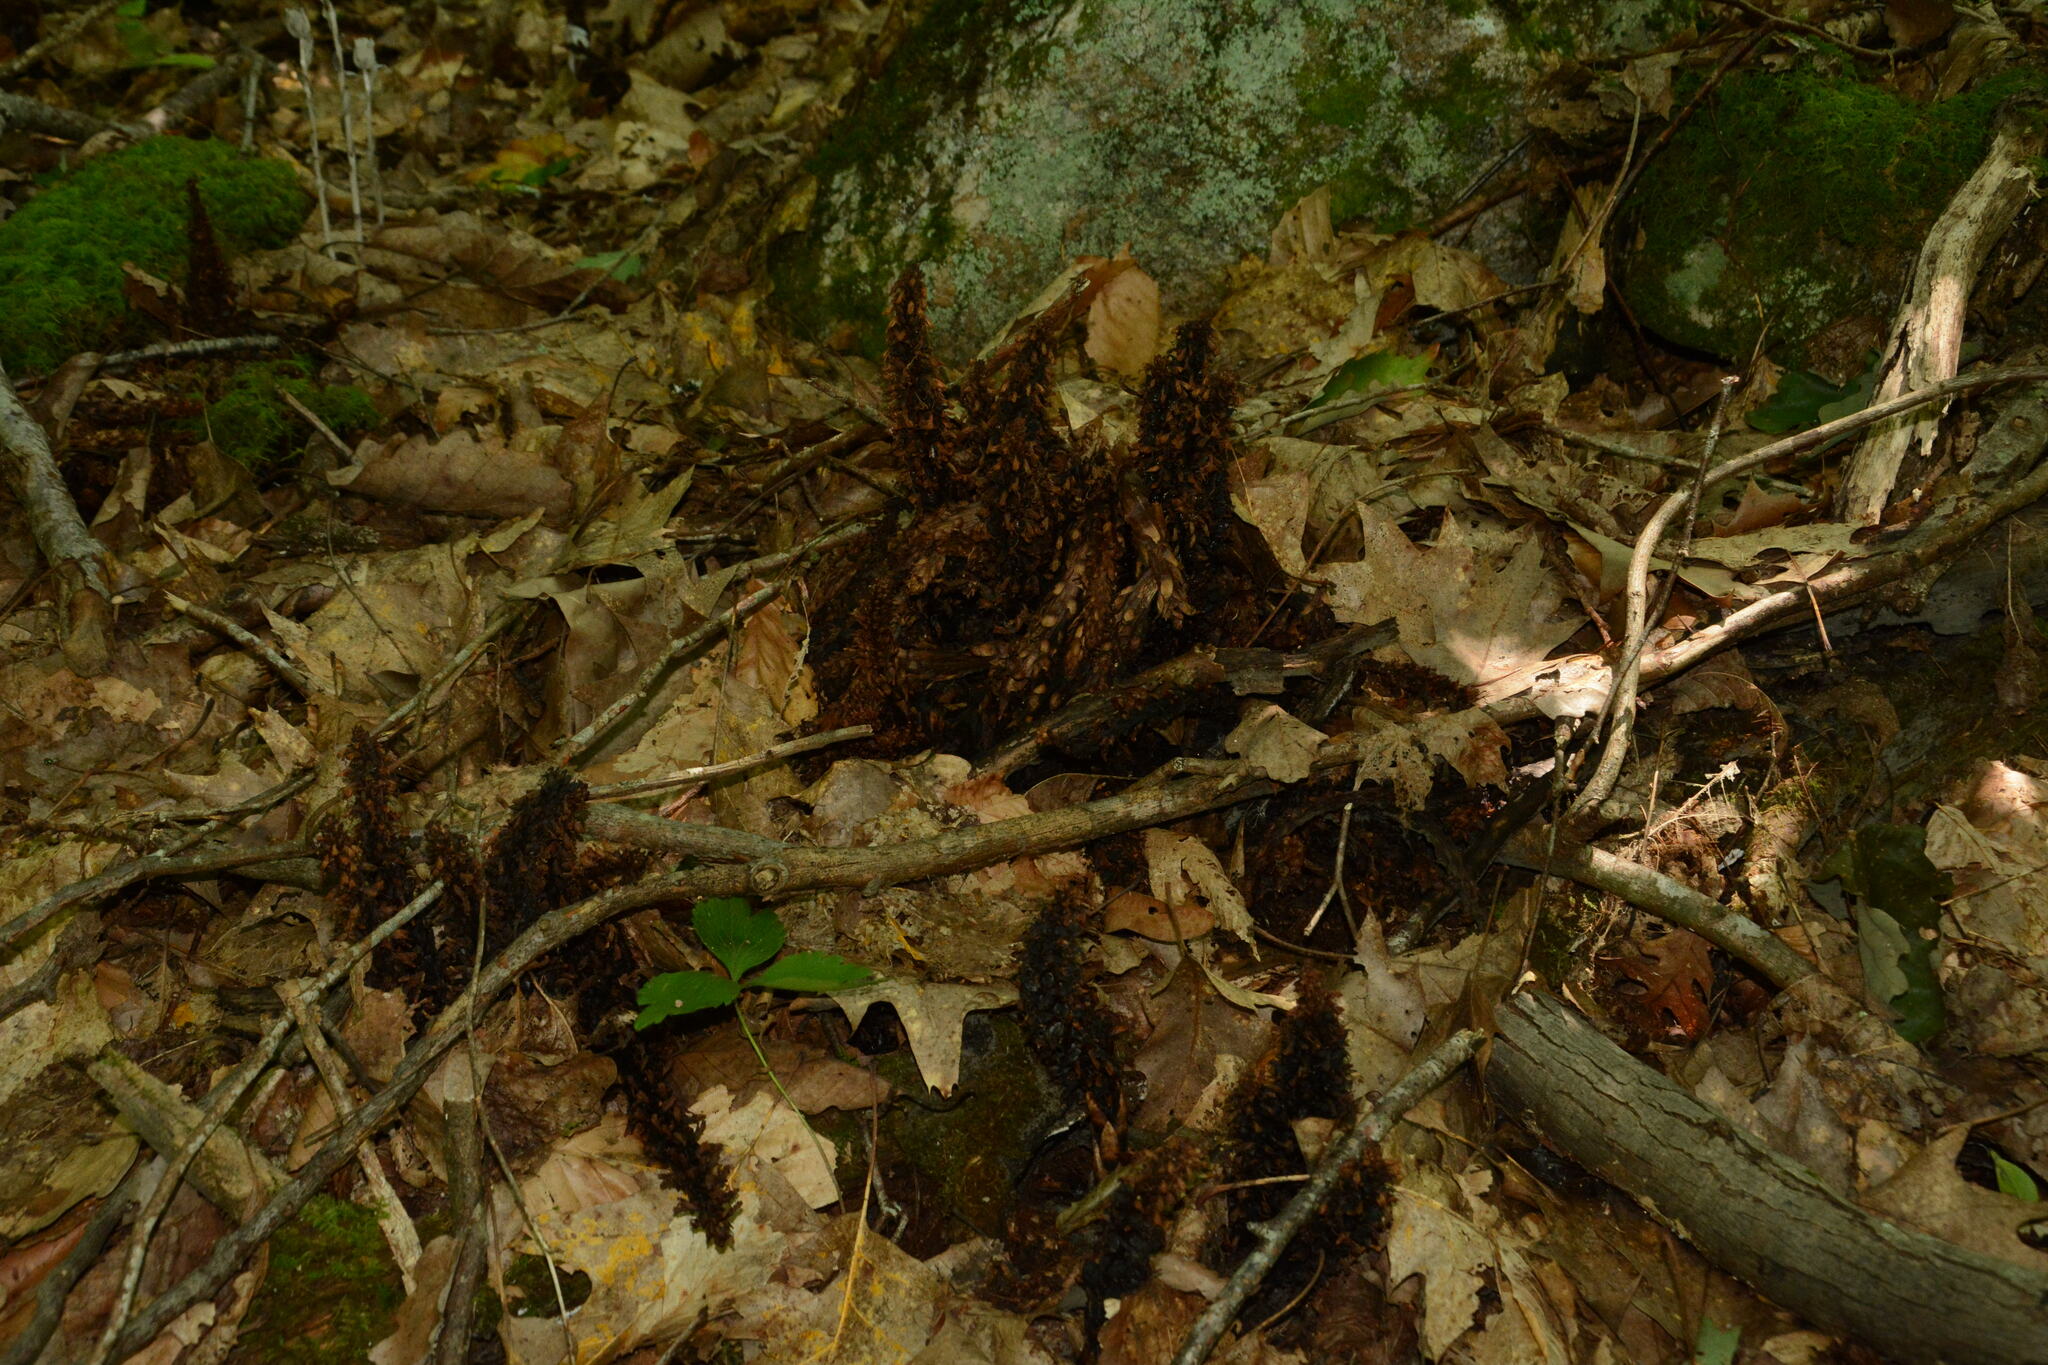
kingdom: Plantae
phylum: Tracheophyta
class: Magnoliopsida
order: Lamiales
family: Orobanchaceae
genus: Conopholis
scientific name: Conopholis americana
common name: American cancer-root
